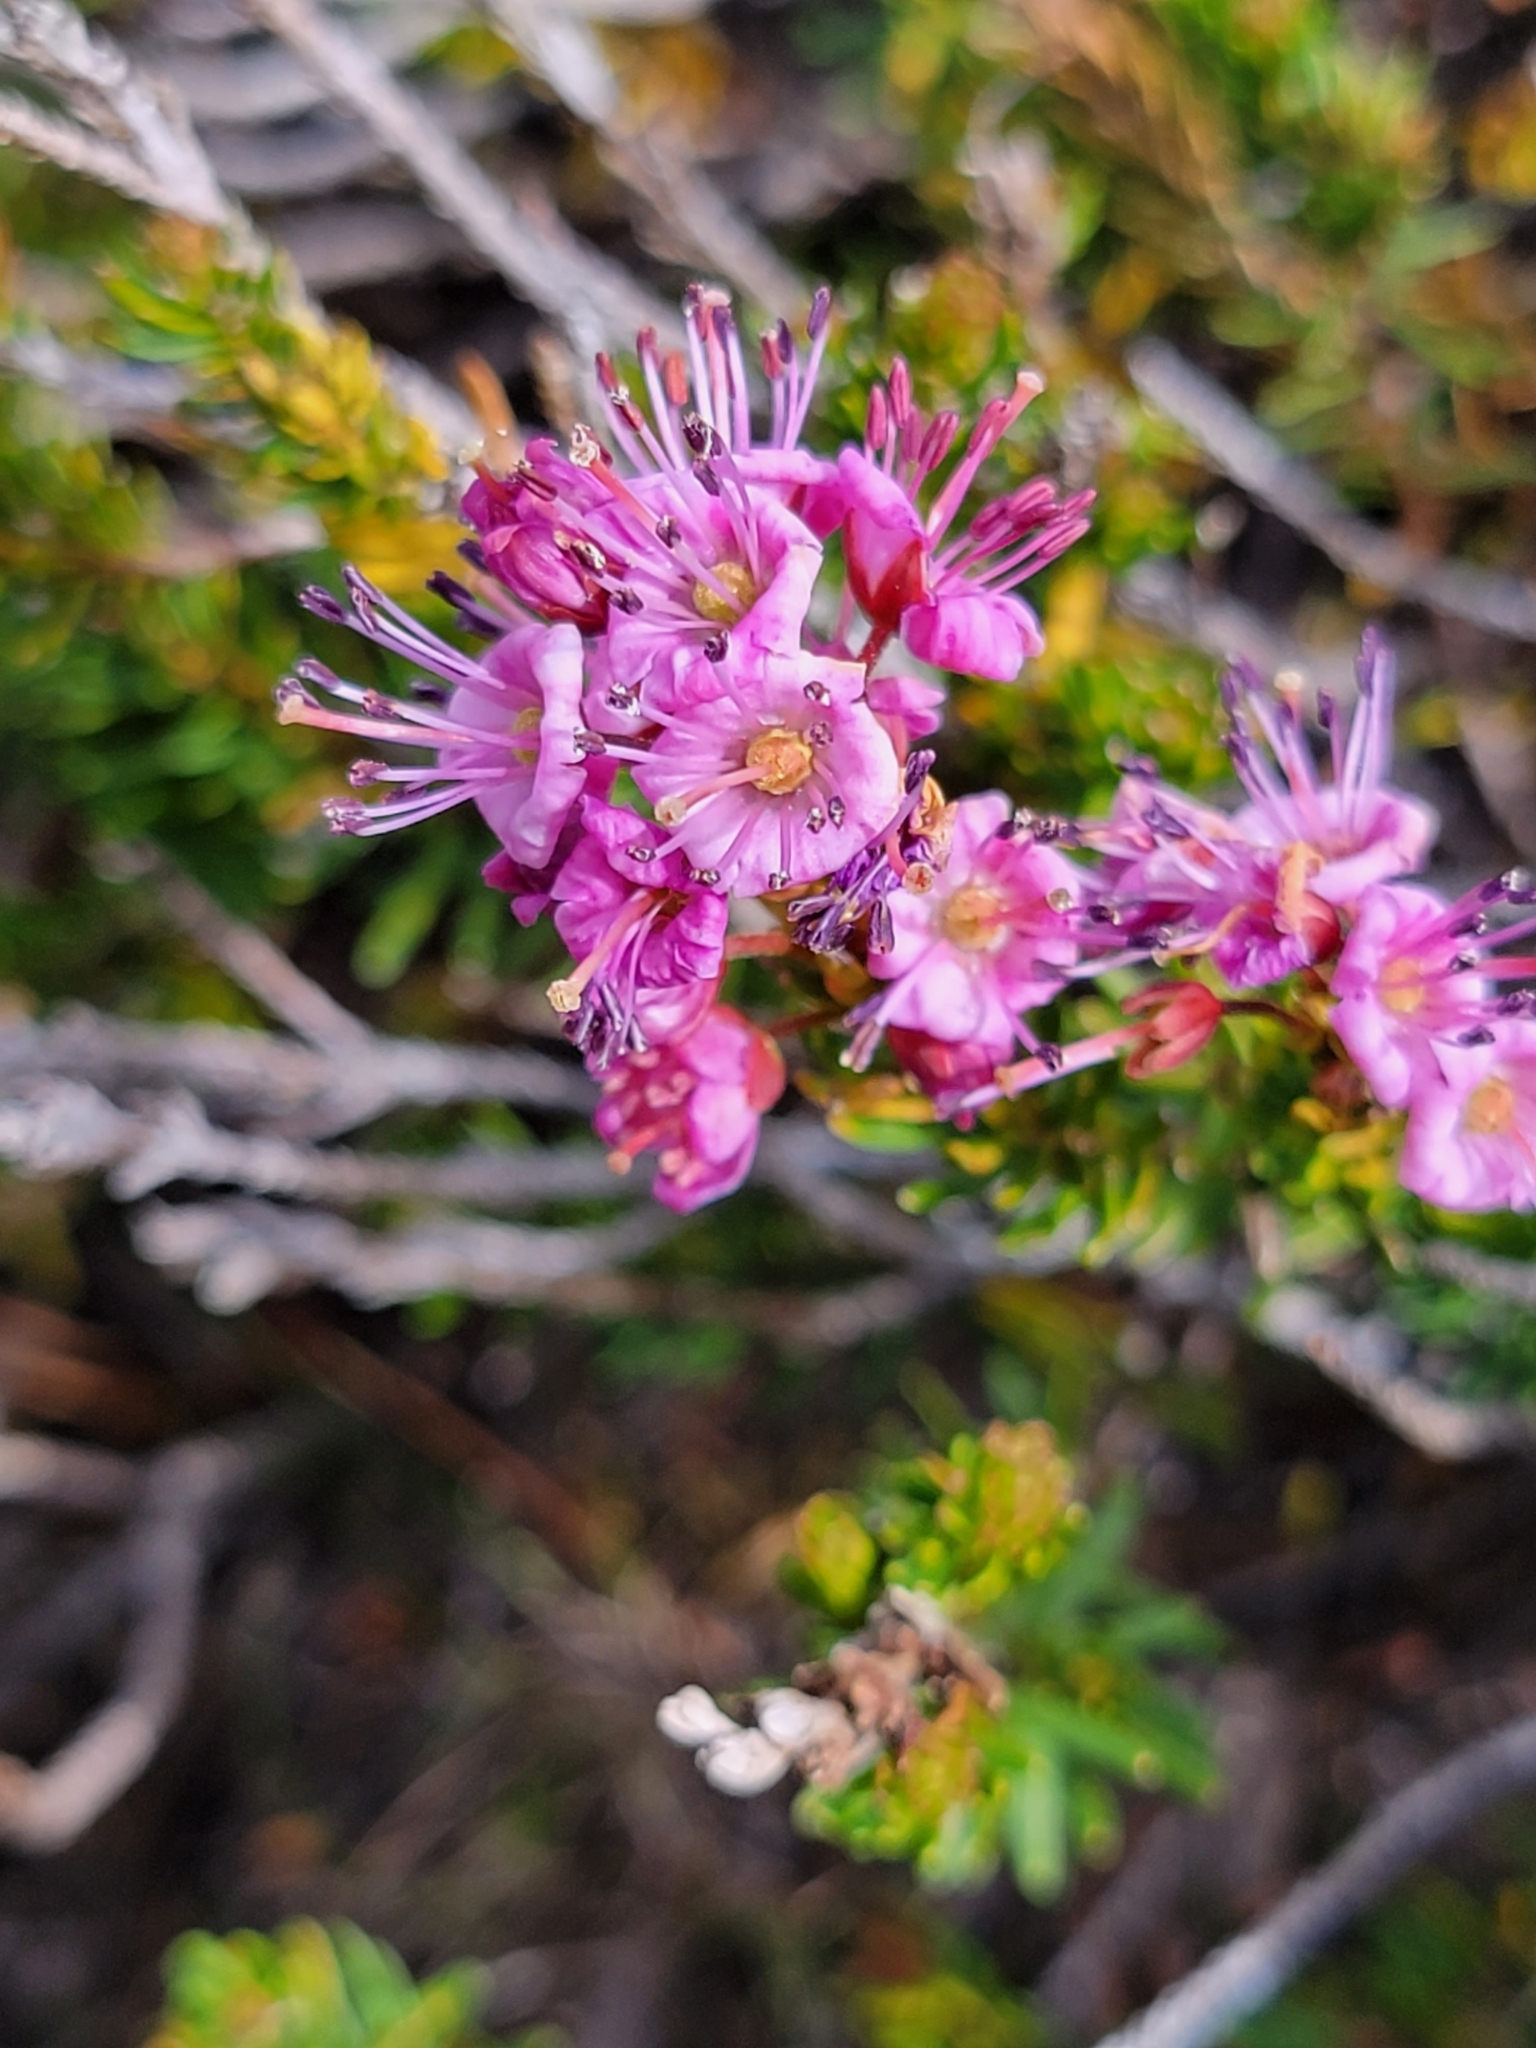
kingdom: Plantae
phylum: Tracheophyta
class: Magnoliopsida
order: Ericales
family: Ericaceae
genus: Phyllodoce
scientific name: Phyllodoce breweri
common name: Brewer's mountain-heather
